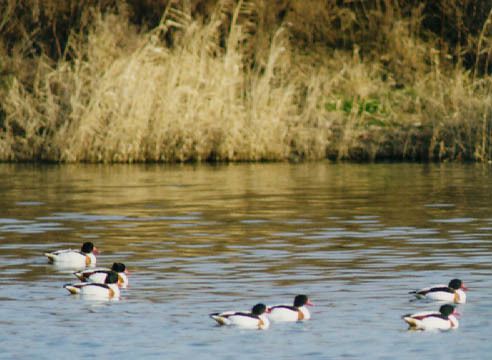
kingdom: Animalia
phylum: Chordata
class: Aves
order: Anseriformes
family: Anatidae
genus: Tadorna
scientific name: Tadorna tadorna
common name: Common shelduck
